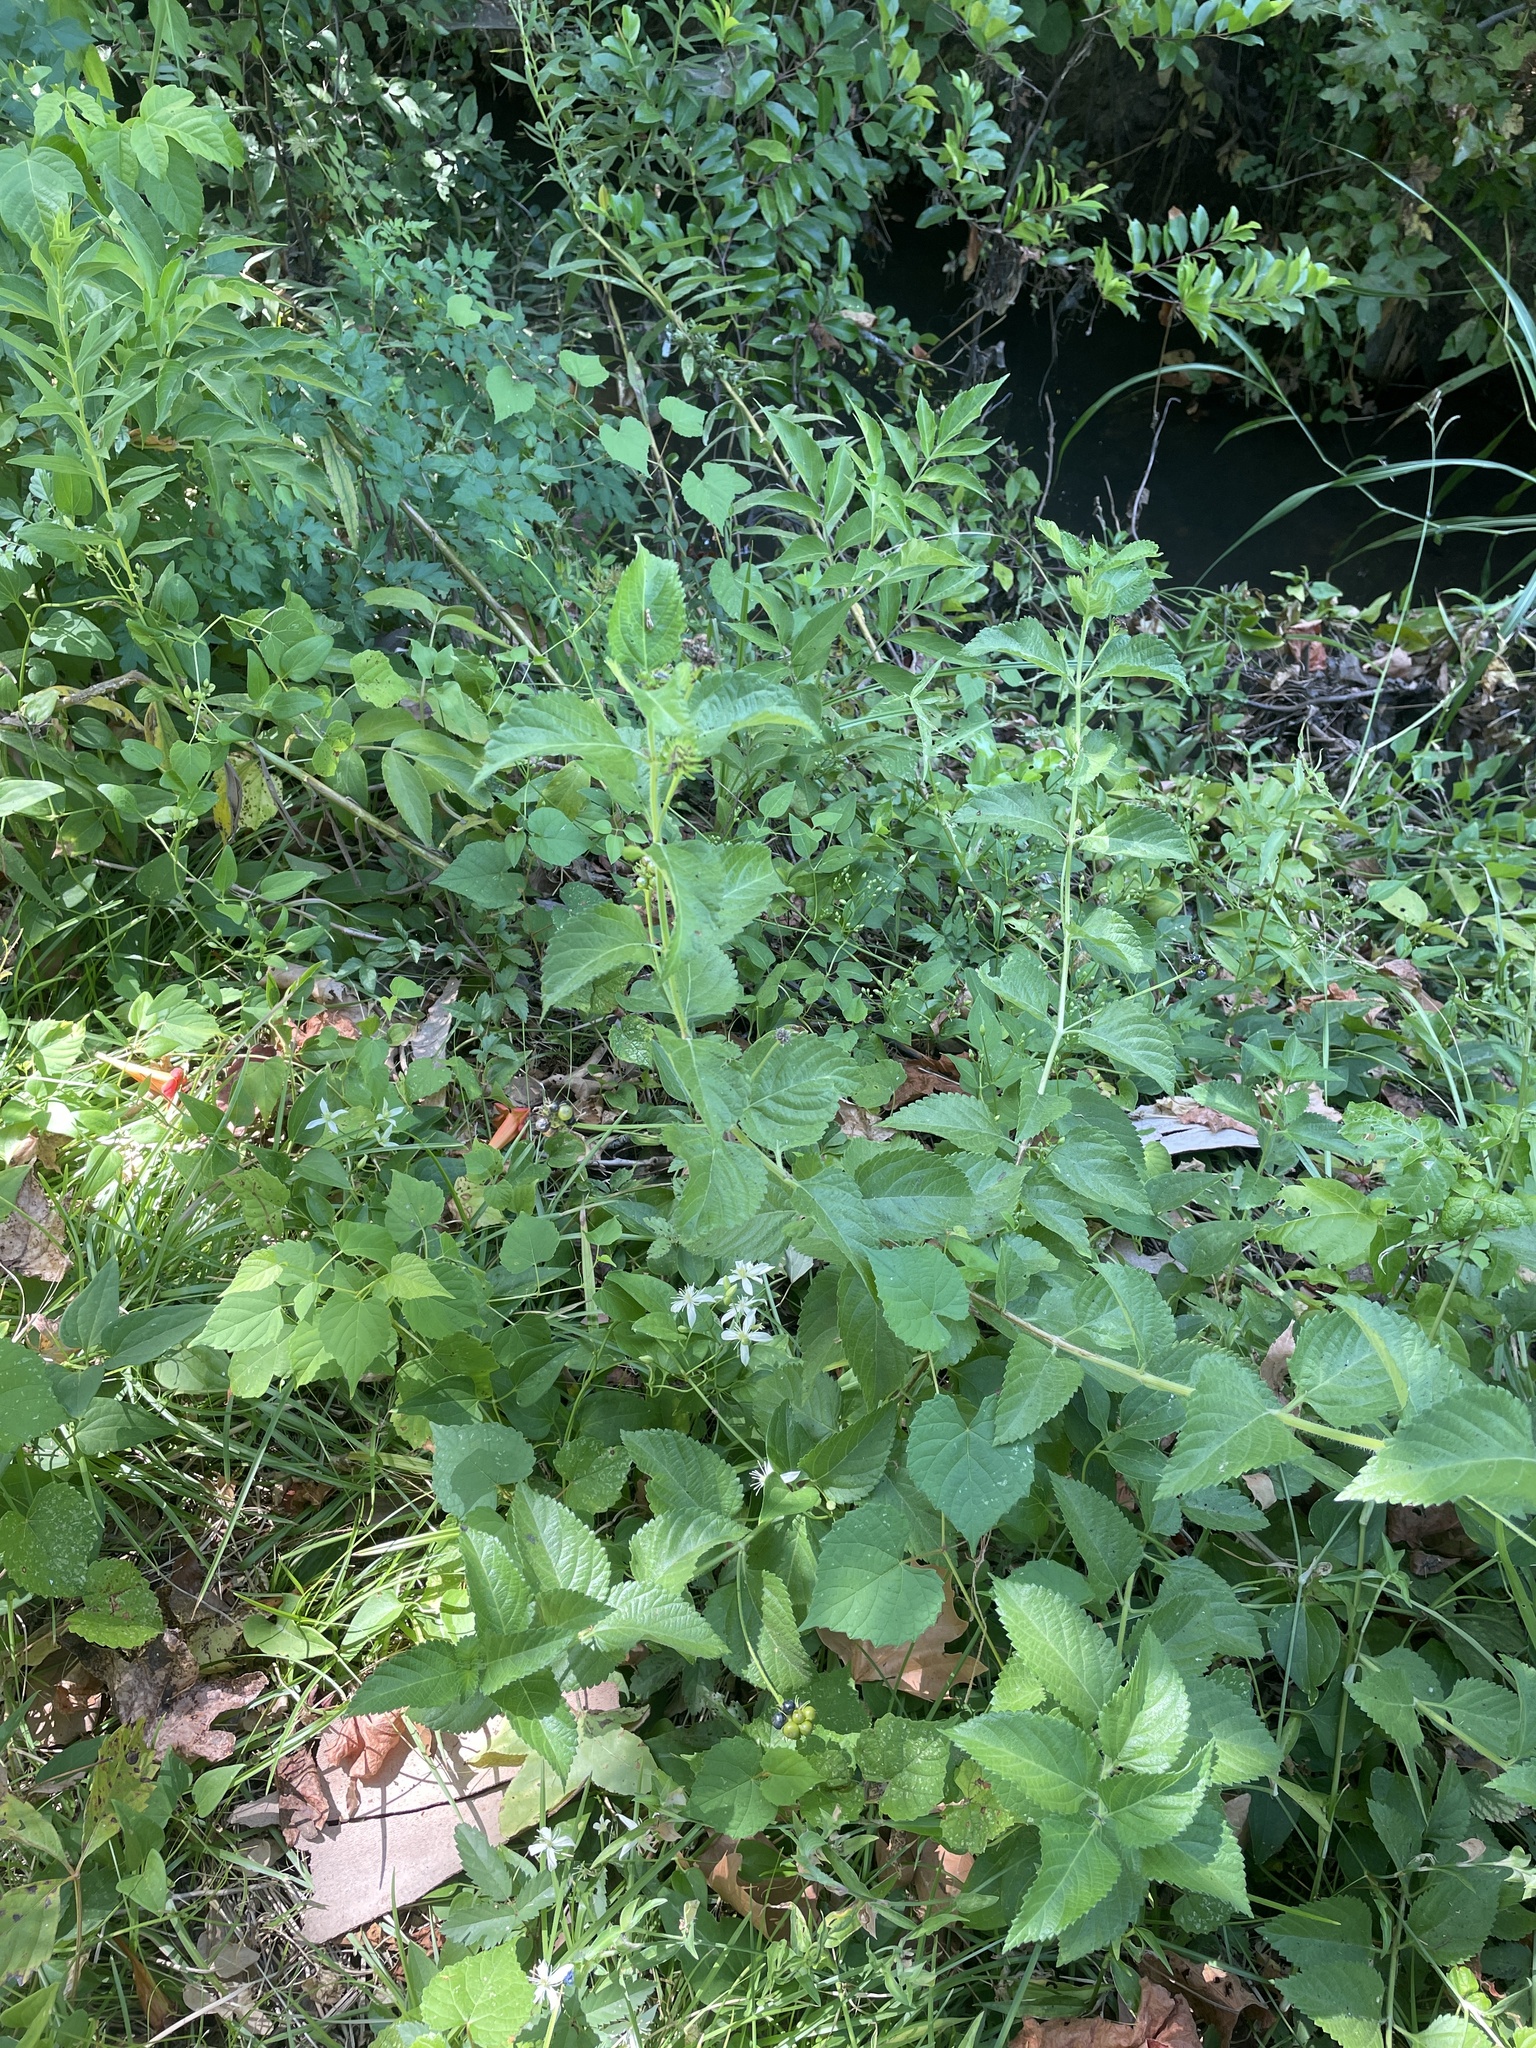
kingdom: Plantae
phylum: Tracheophyta
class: Magnoliopsida
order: Lamiales
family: Verbenaceae
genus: Lantana
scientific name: Lantana camara
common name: Lantana
